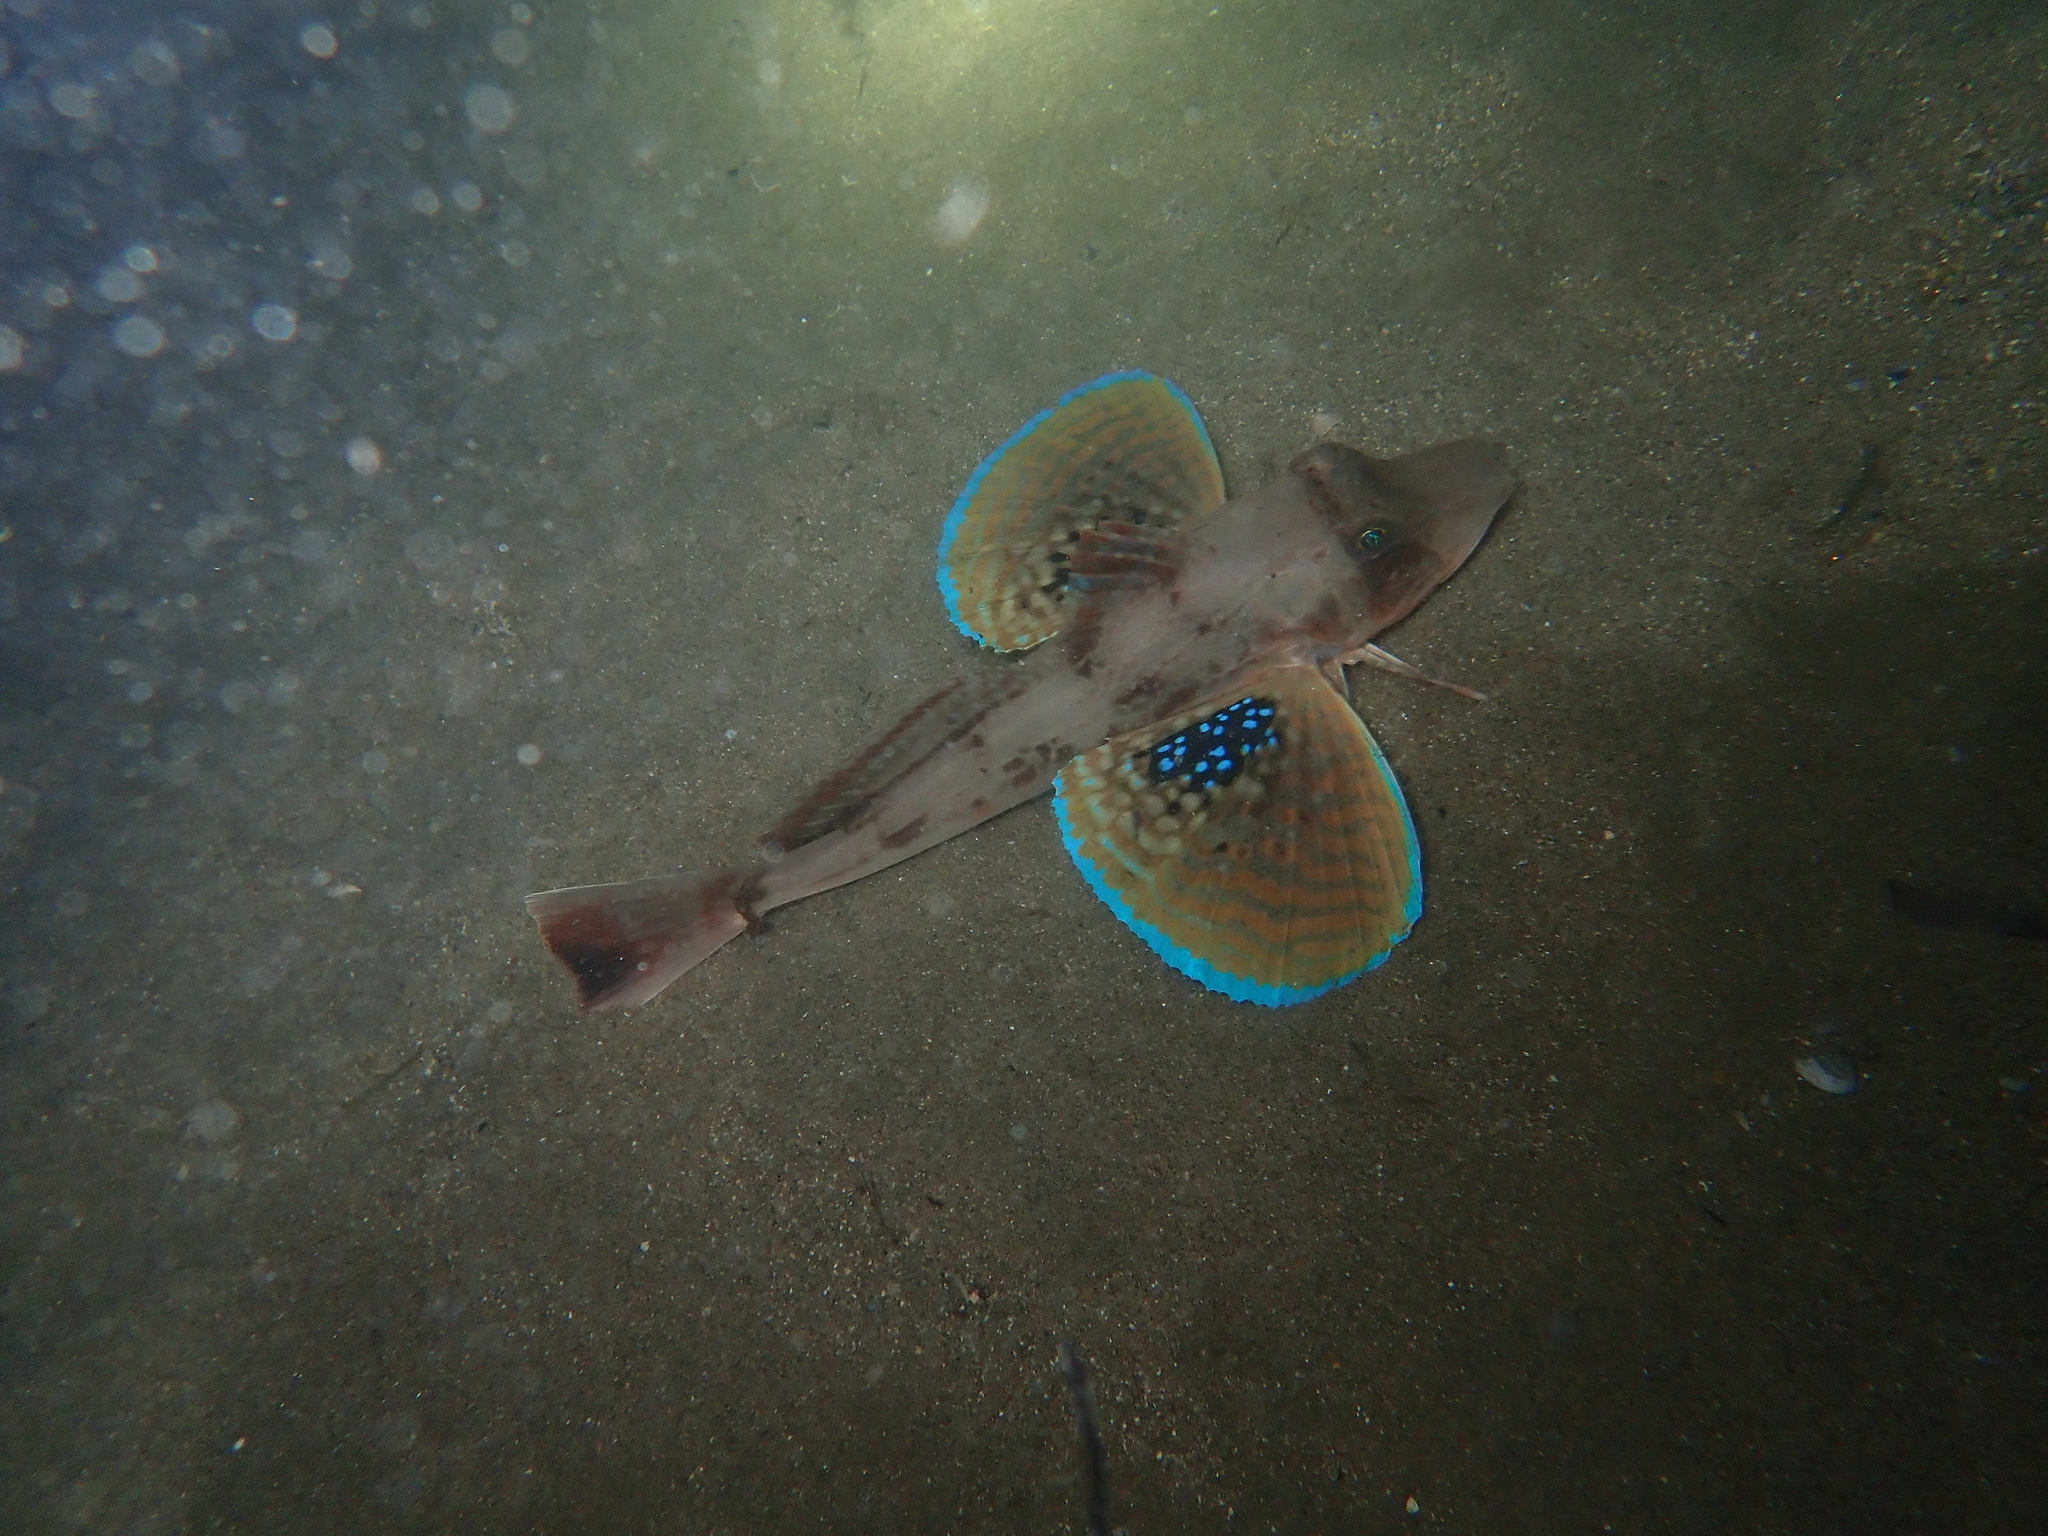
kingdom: Animalia
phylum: Chordata
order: Scorpaeniformes
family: Triglidae
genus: Chelidonichthys
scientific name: Chelidonichthys lucerna
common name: Tub gurnard
